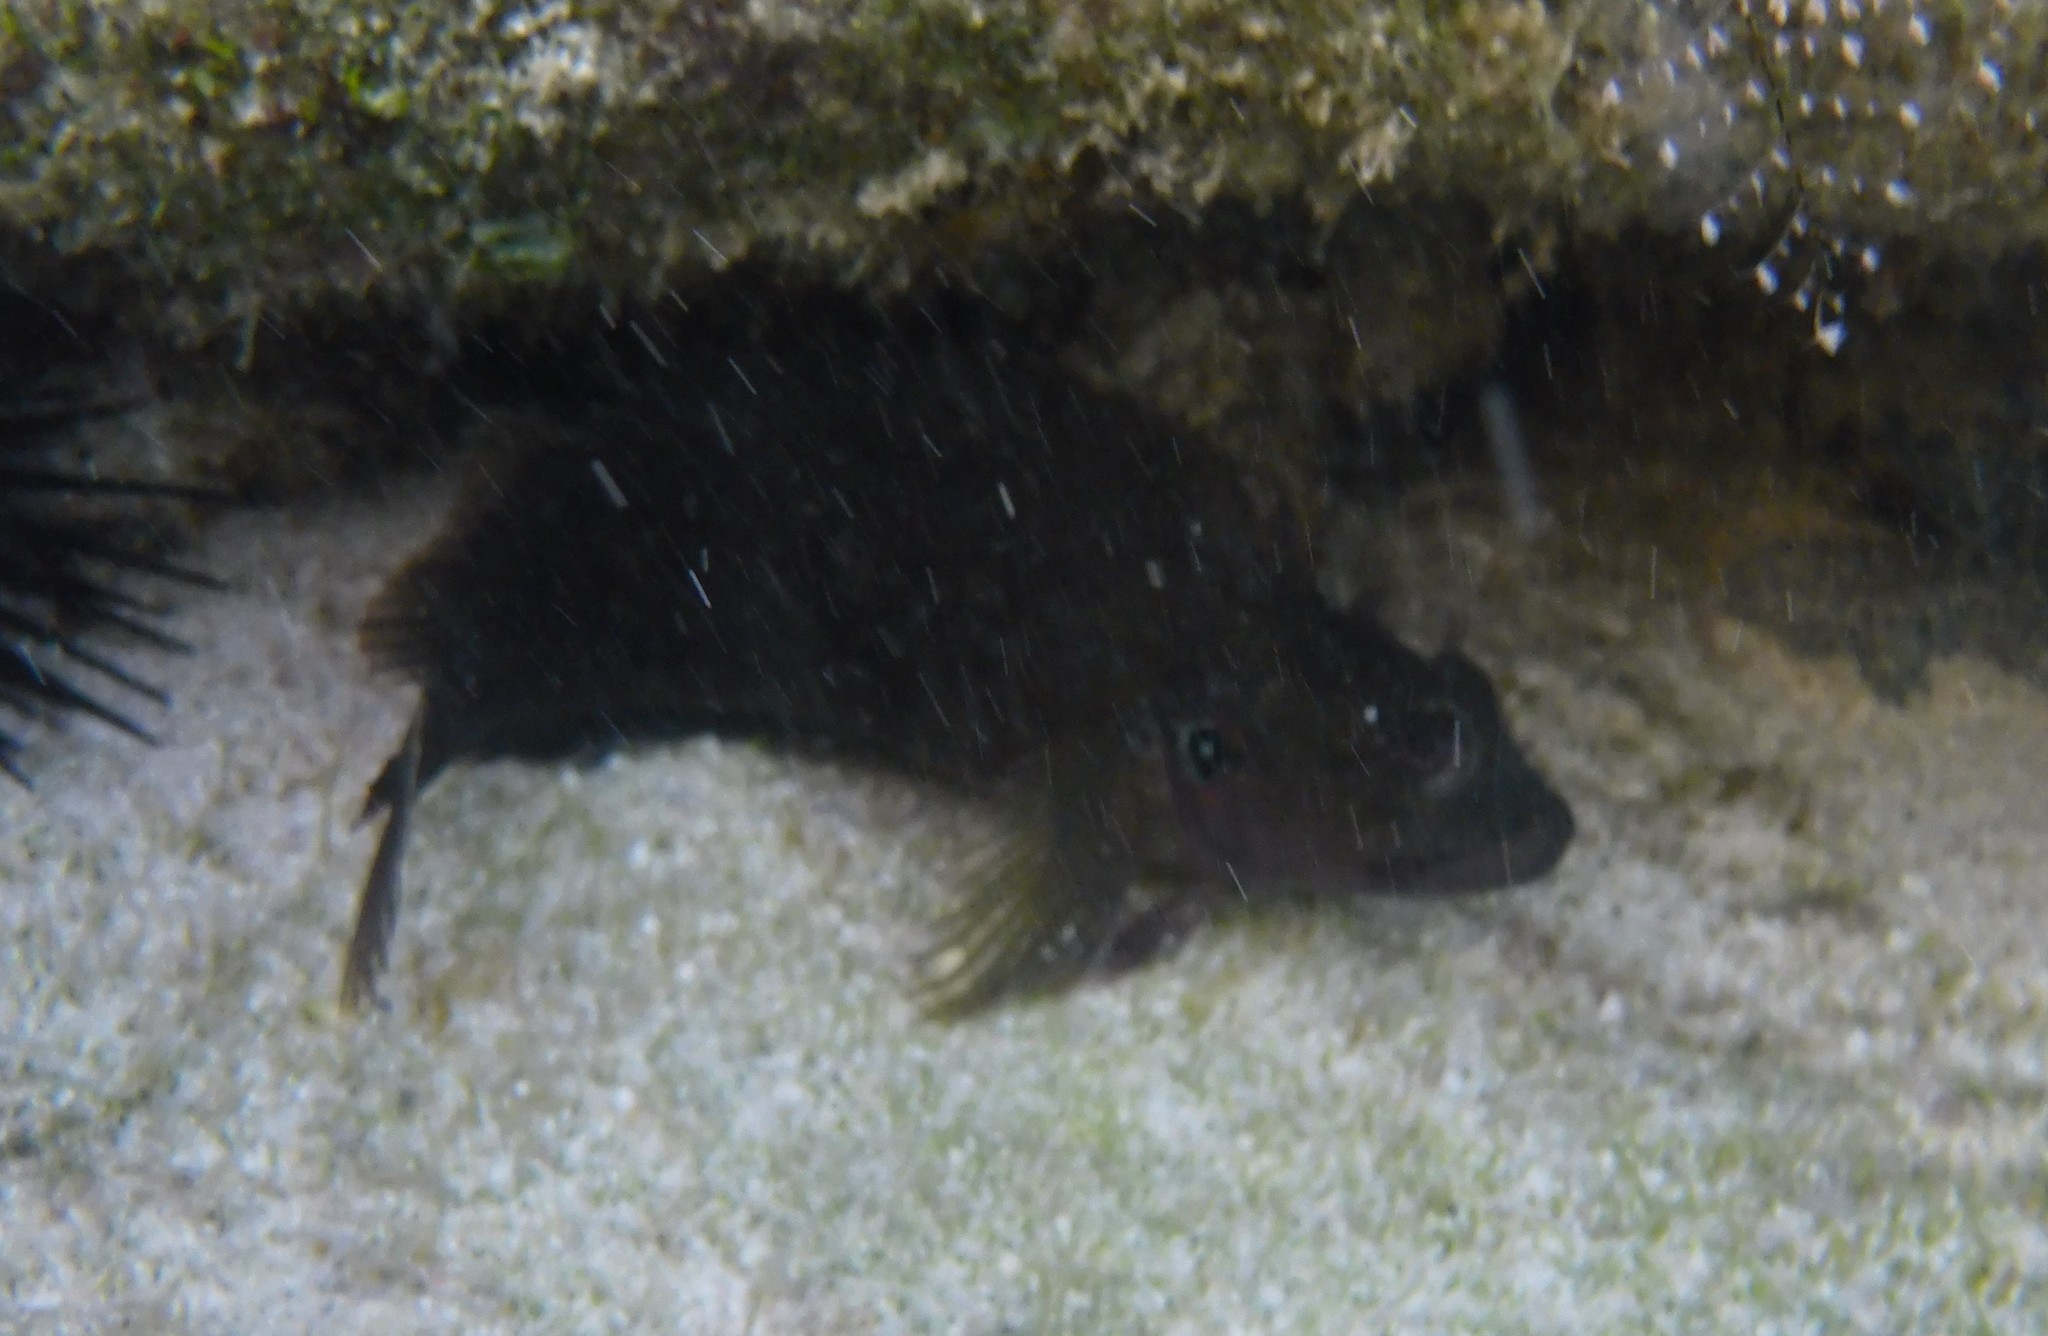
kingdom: Animalia
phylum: Chordata
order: Perciformes
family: Labrisomidae
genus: Labrisomus
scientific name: Labrisomus nuchipinnis
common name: Hairy blenny
